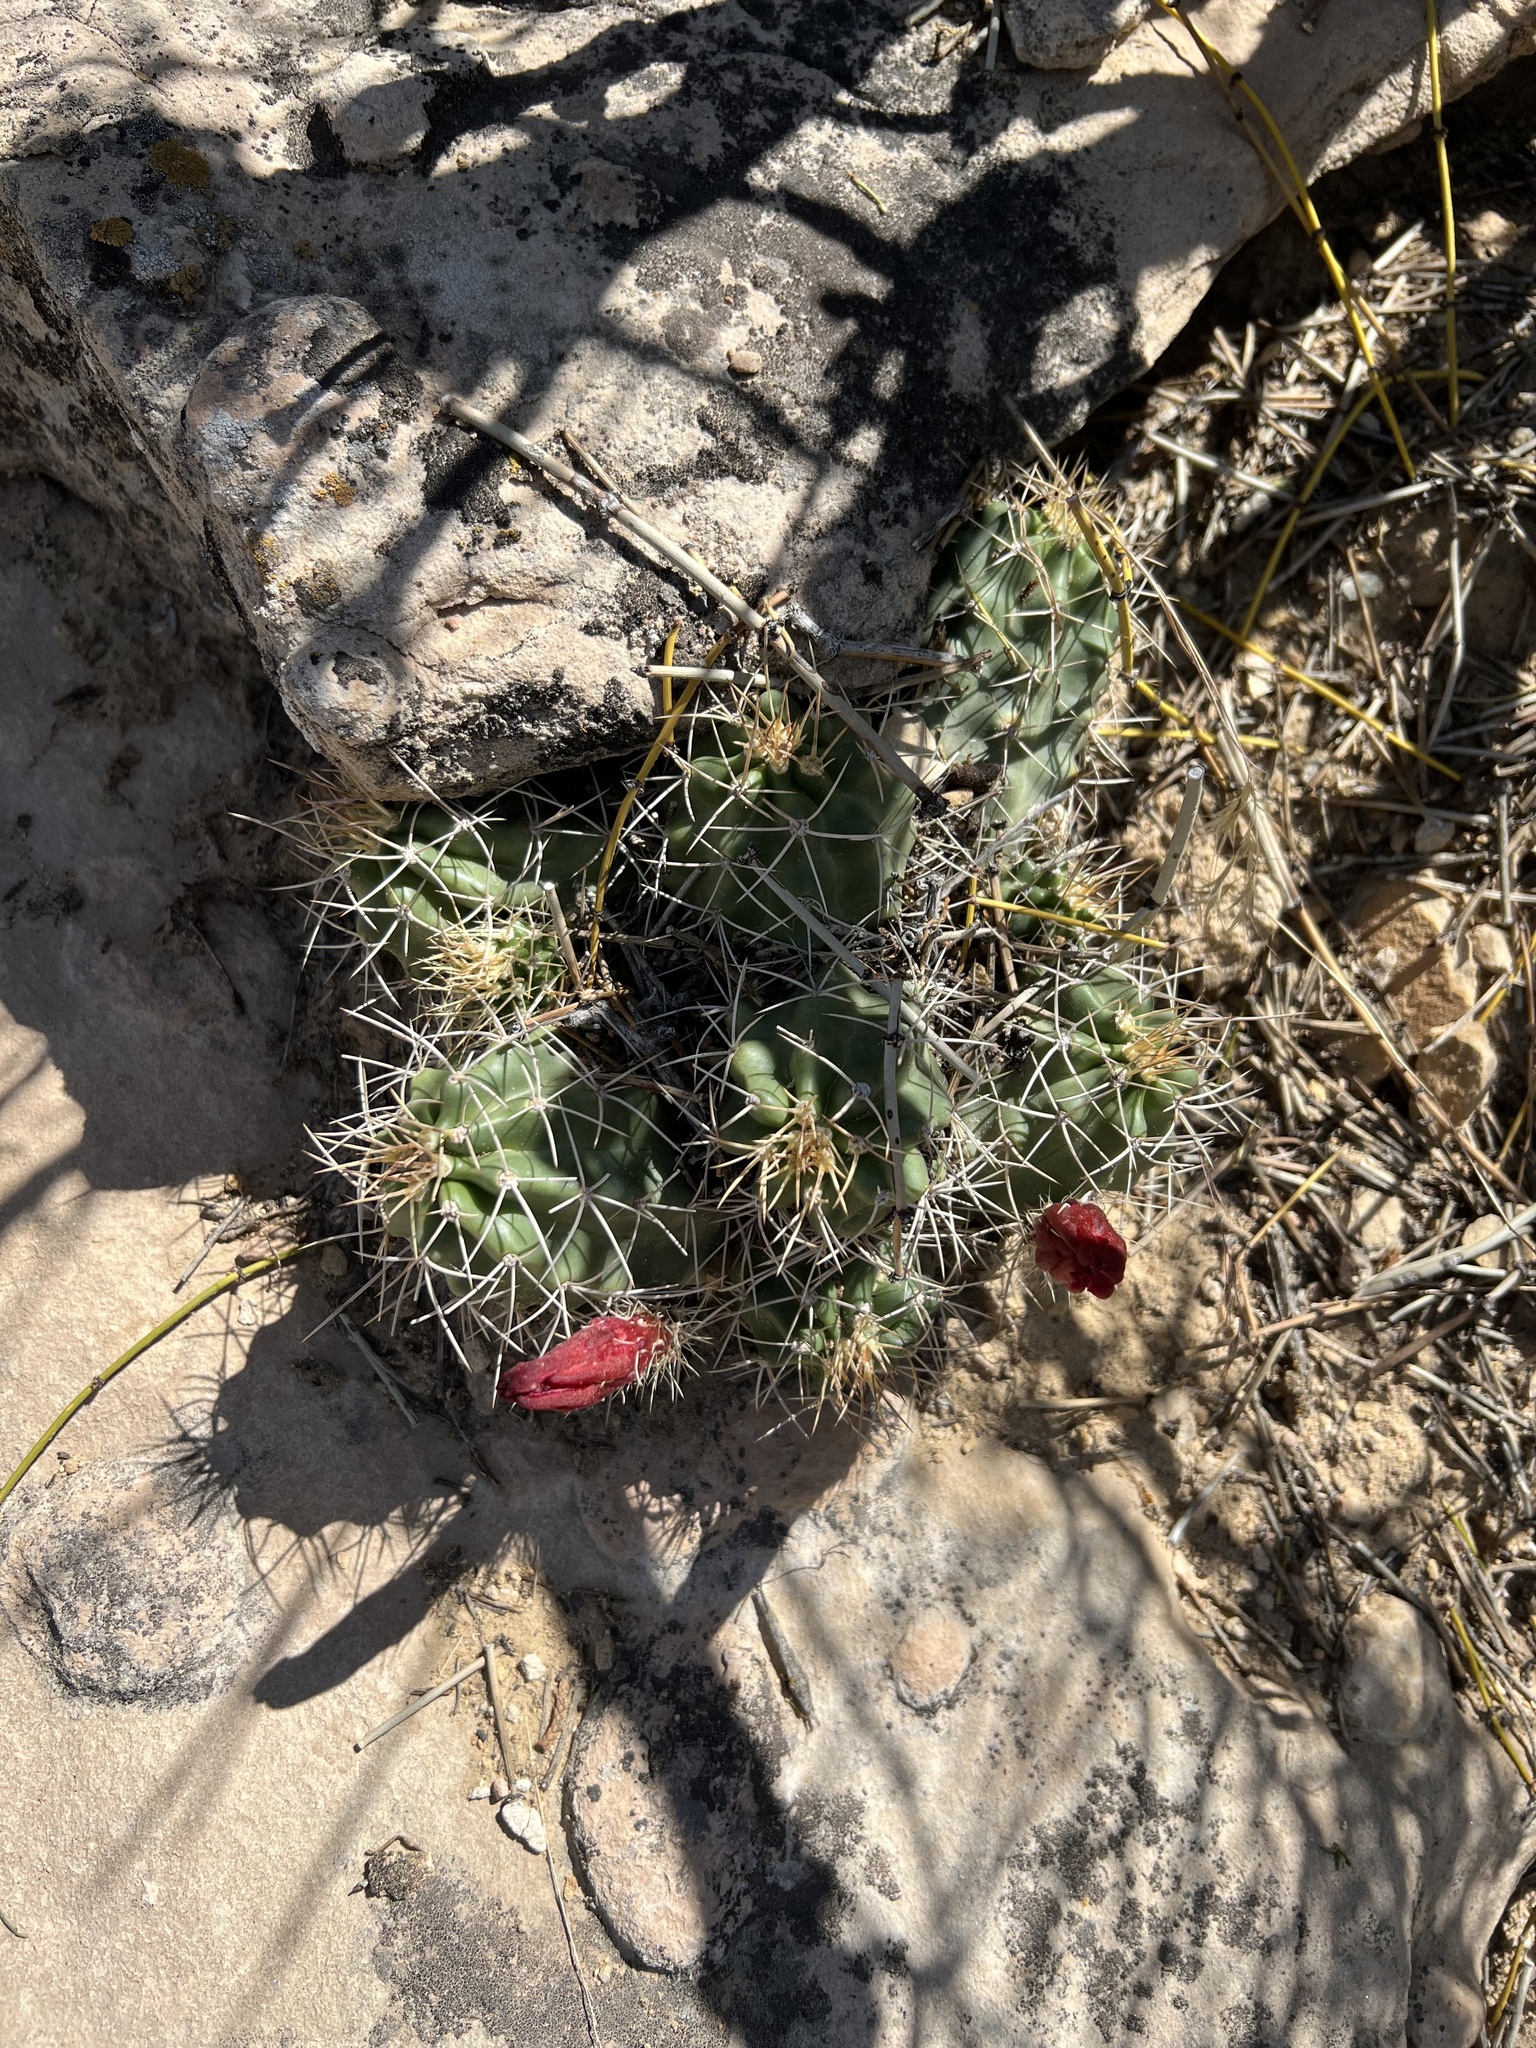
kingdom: Plantae
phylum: Tracheophyta
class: Magnoliopsida
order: Caryophyllales
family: Cactaceae
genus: Echinocereus
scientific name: Echinocereus triglochidiatus
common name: Claretcup hedgehog
